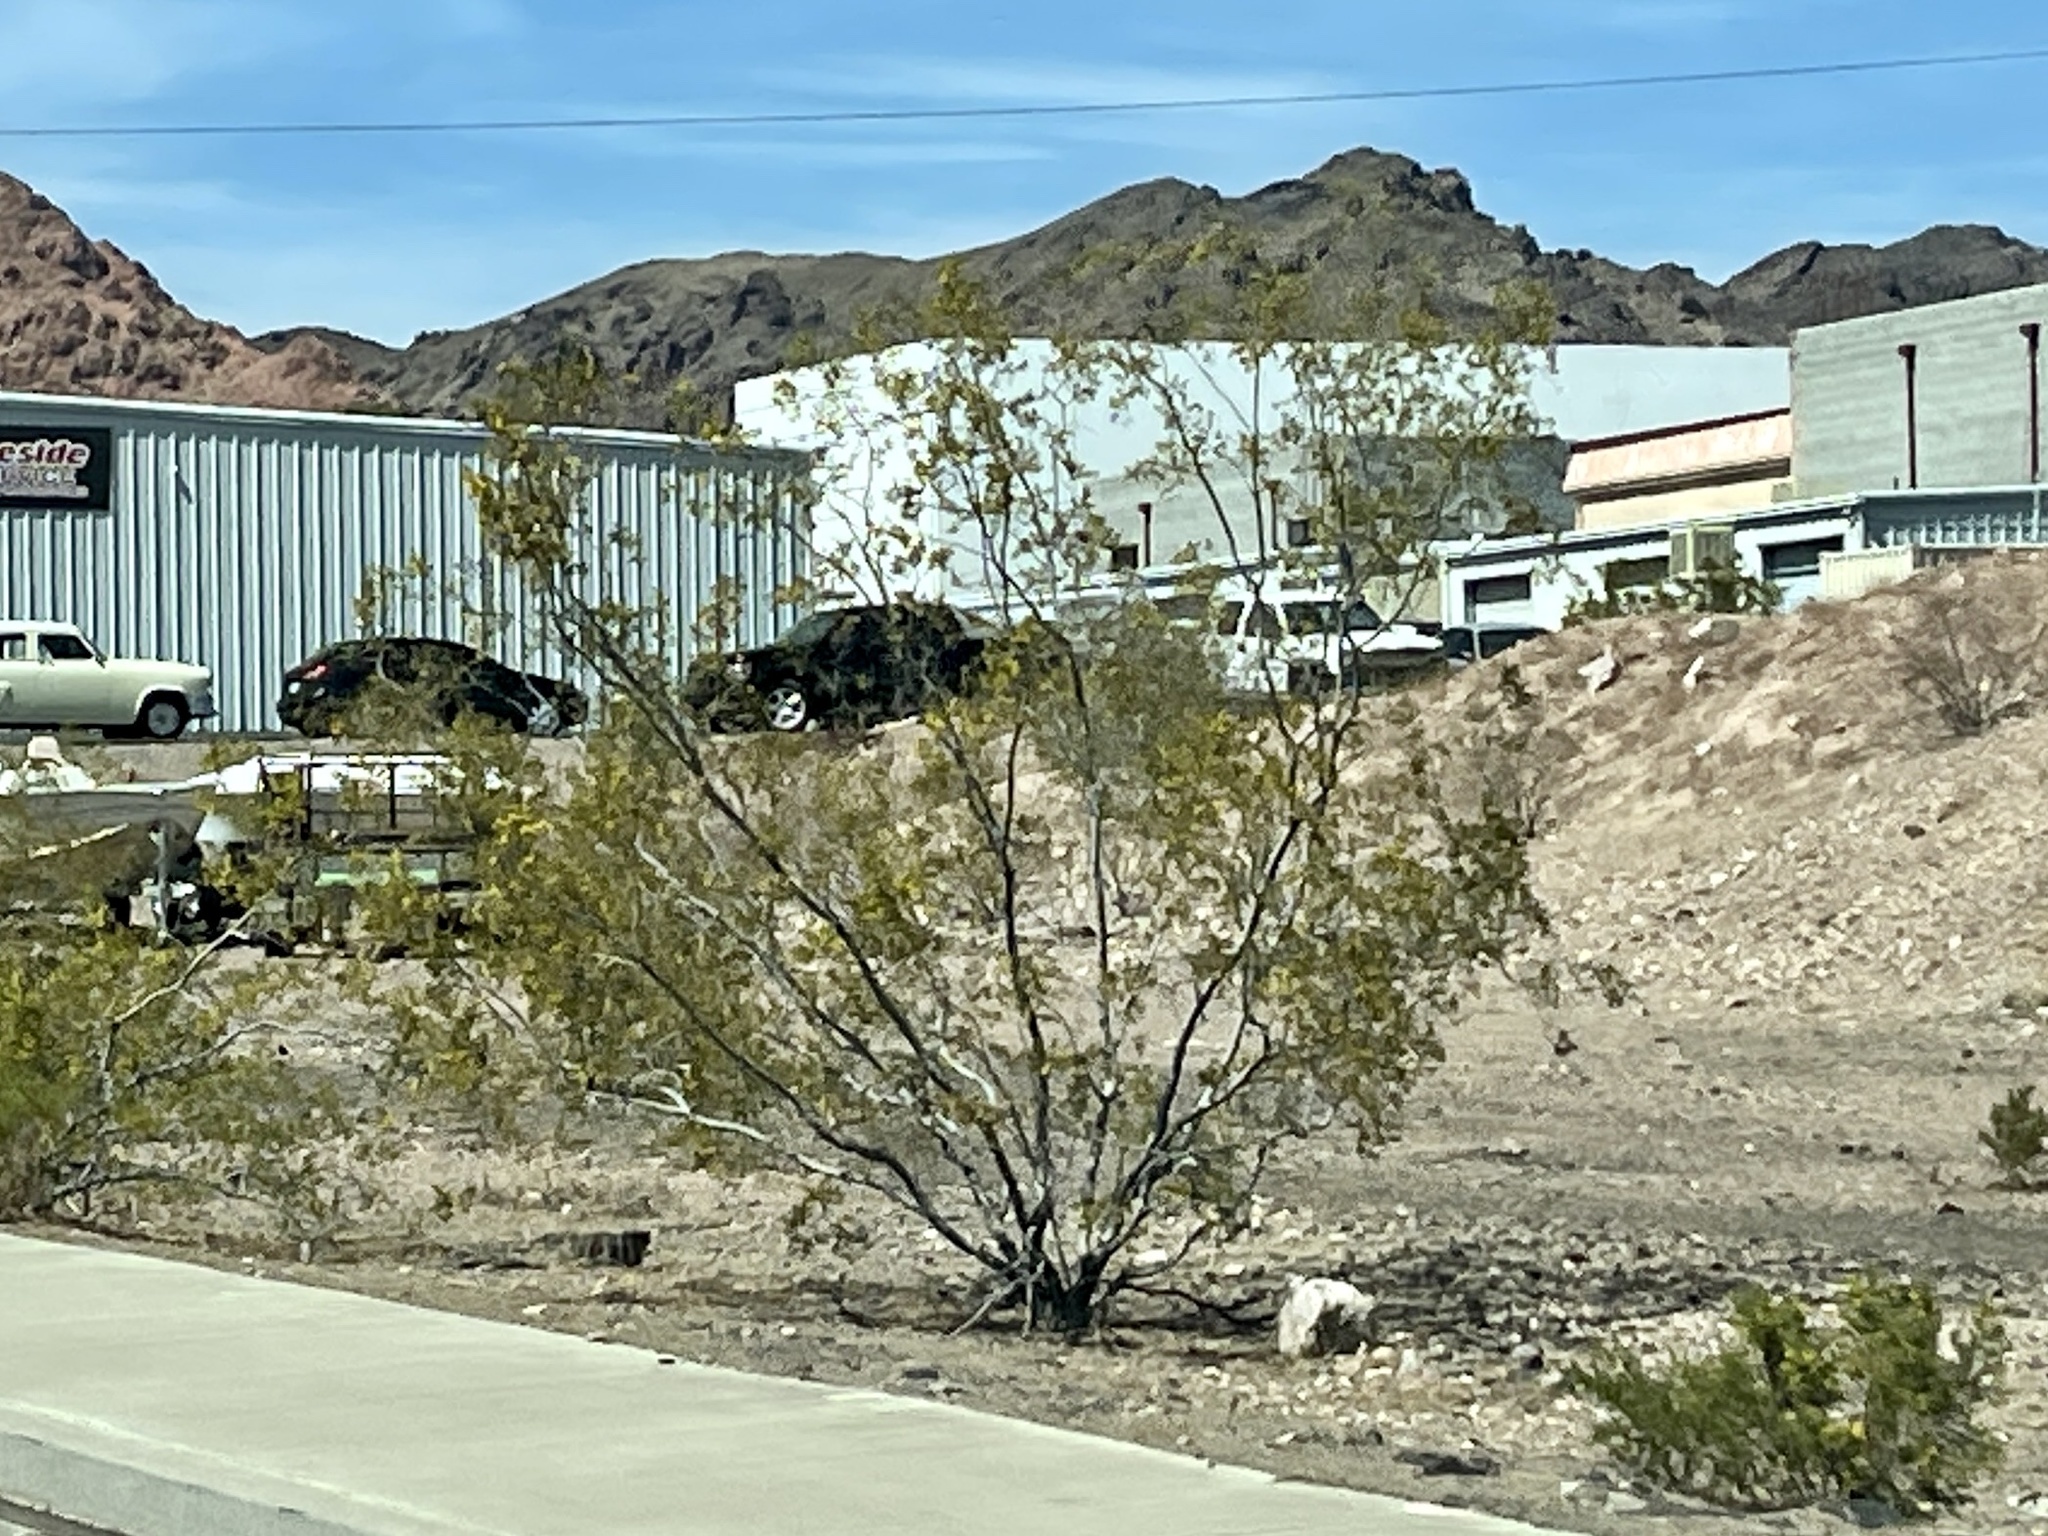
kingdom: Plantae
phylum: Tracheophyta
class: Magnoliopsida
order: Zygophyllales
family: Zygophyllaceae
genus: Larrea
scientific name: Larrea tridentata
